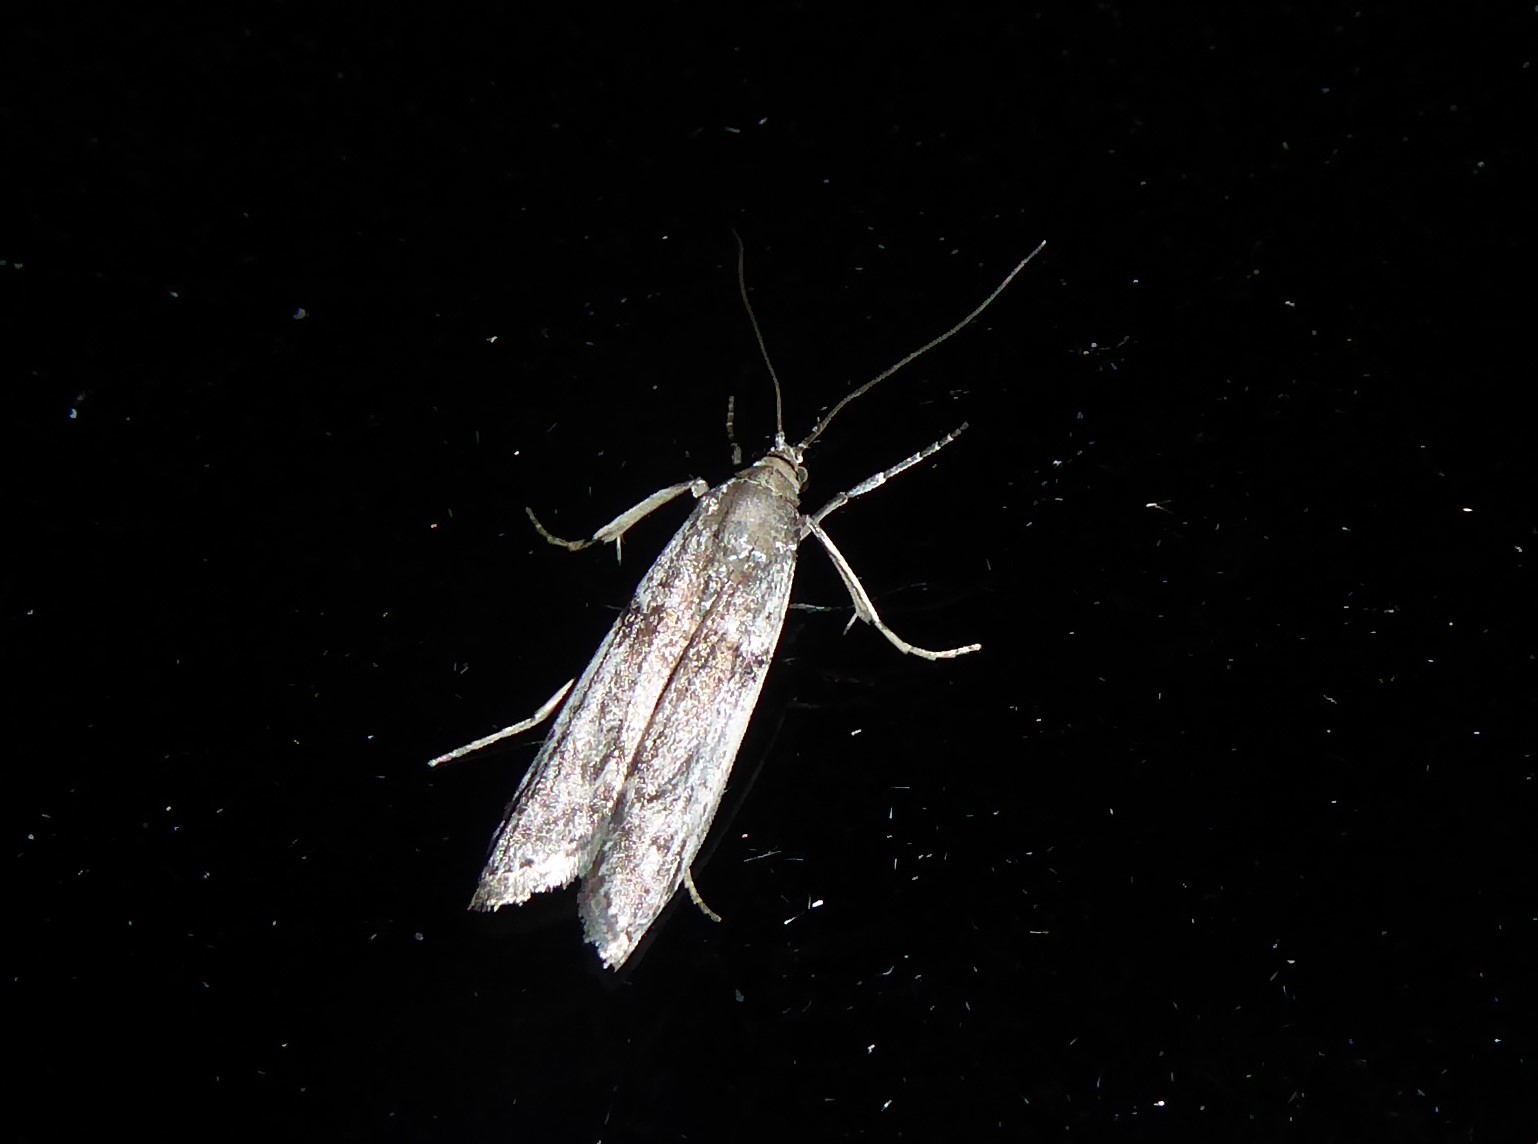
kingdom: Animalia
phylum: Arthropoda
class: Insecta
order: Lepidoptera
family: Pyralidae
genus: Patagoniodes
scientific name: Patagoniodes farinaria
